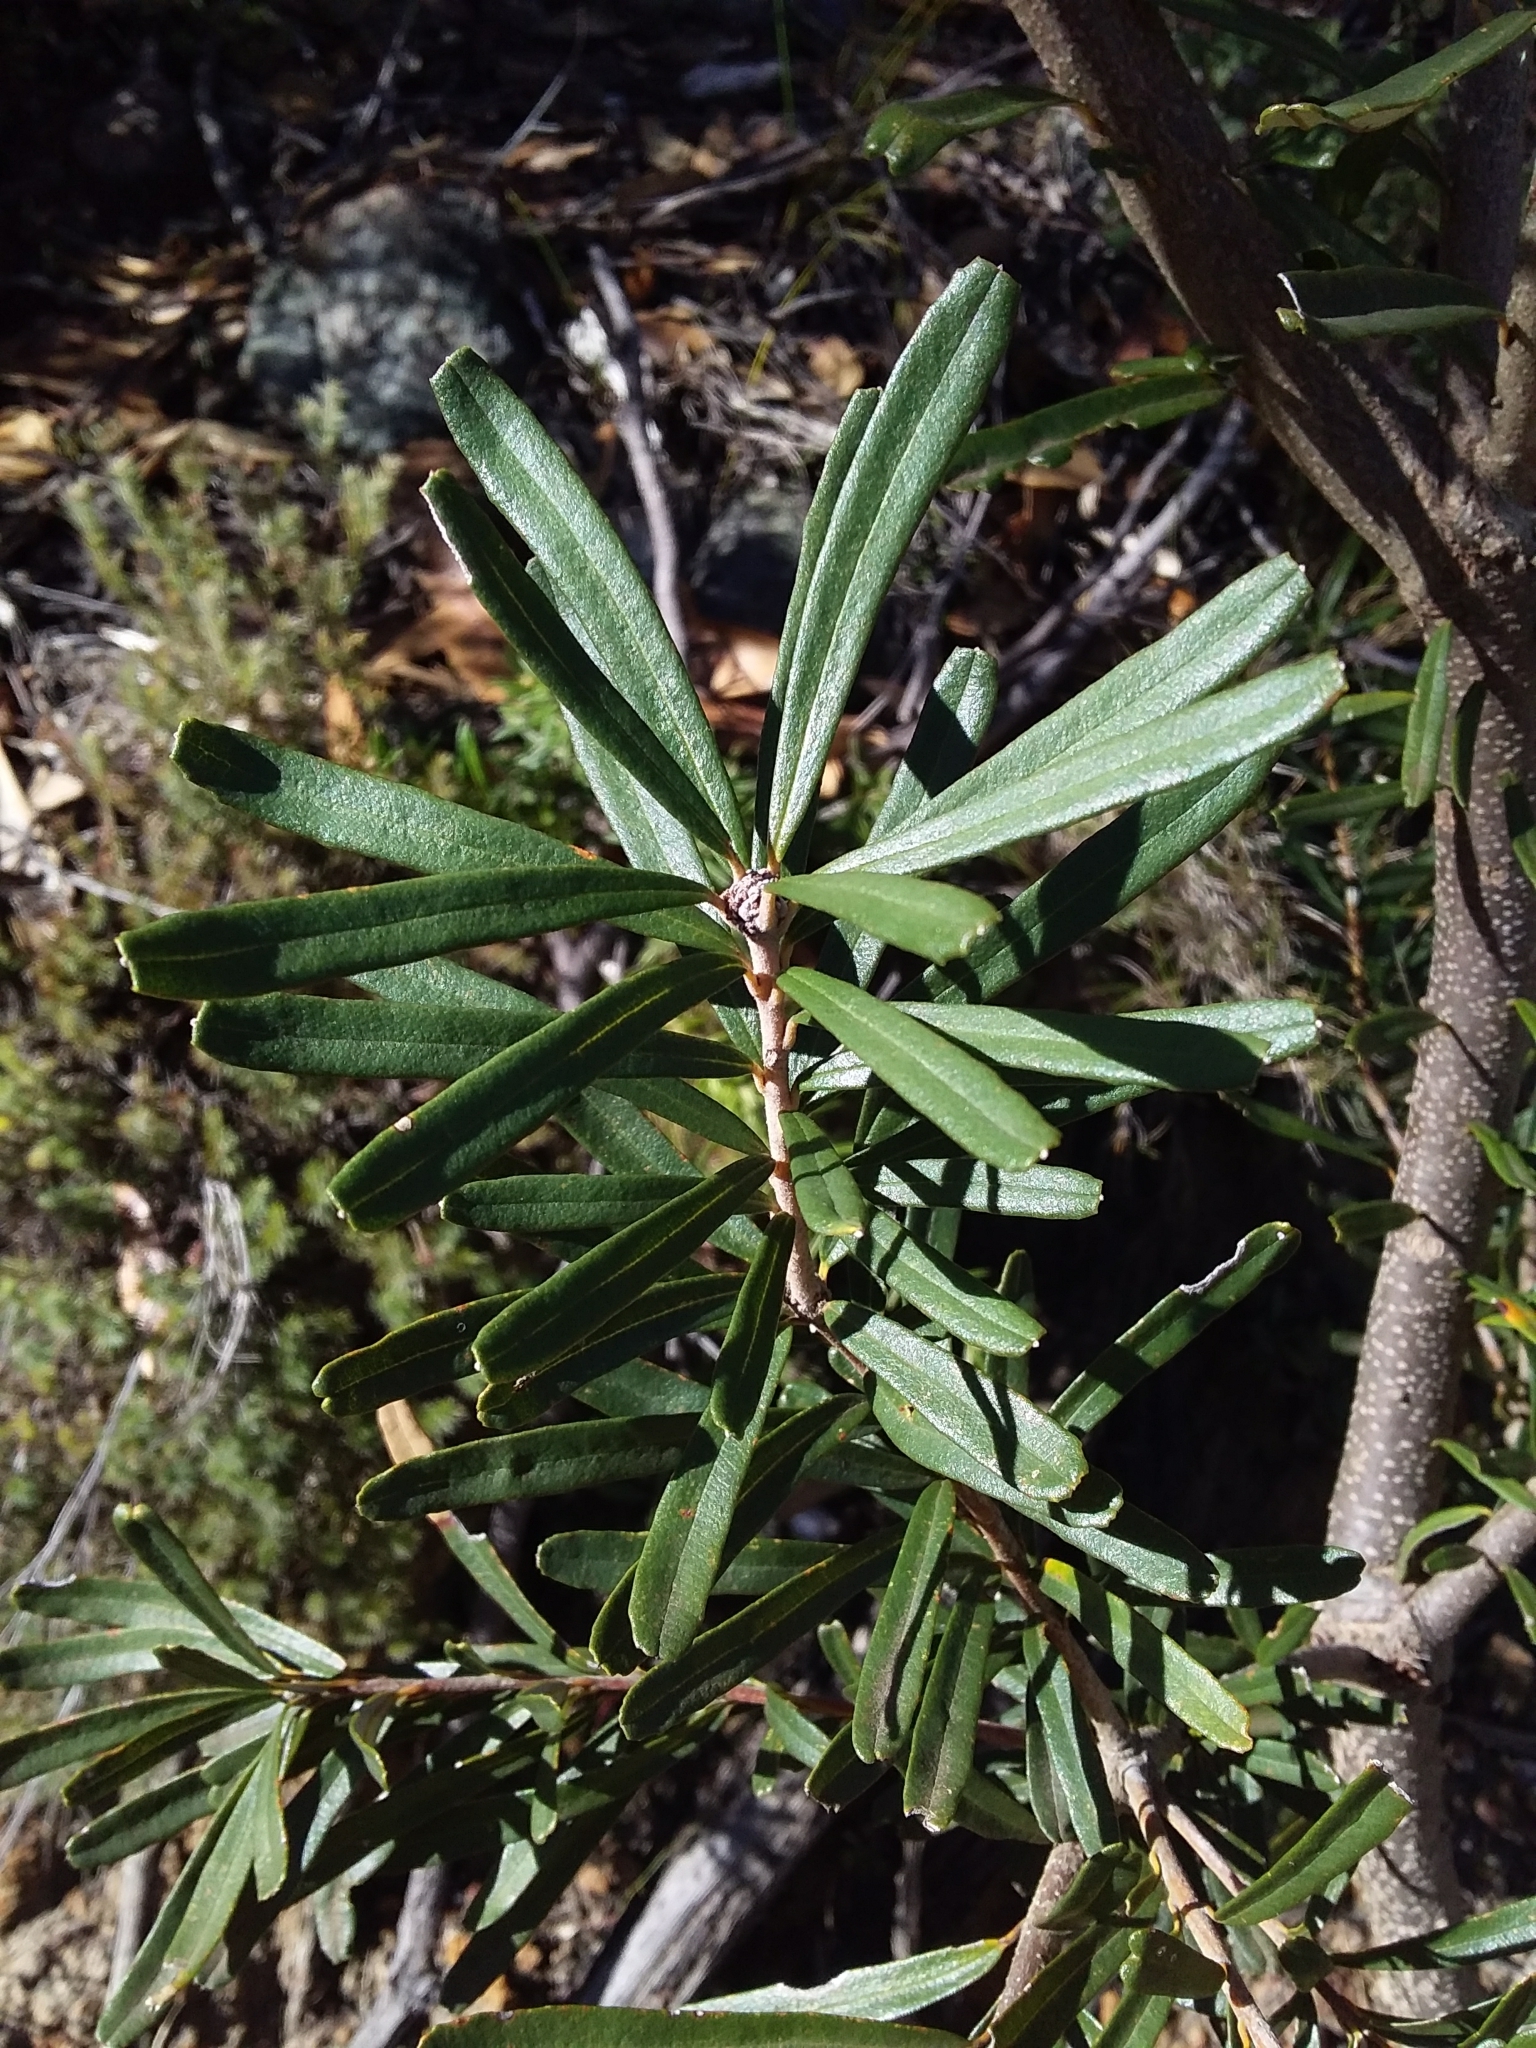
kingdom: Plantae
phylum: Tracheophyta
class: Magnoliopsida
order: Proteales
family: Proteaceae
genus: Banksia
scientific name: Banksia marginata
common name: Silver banksia
